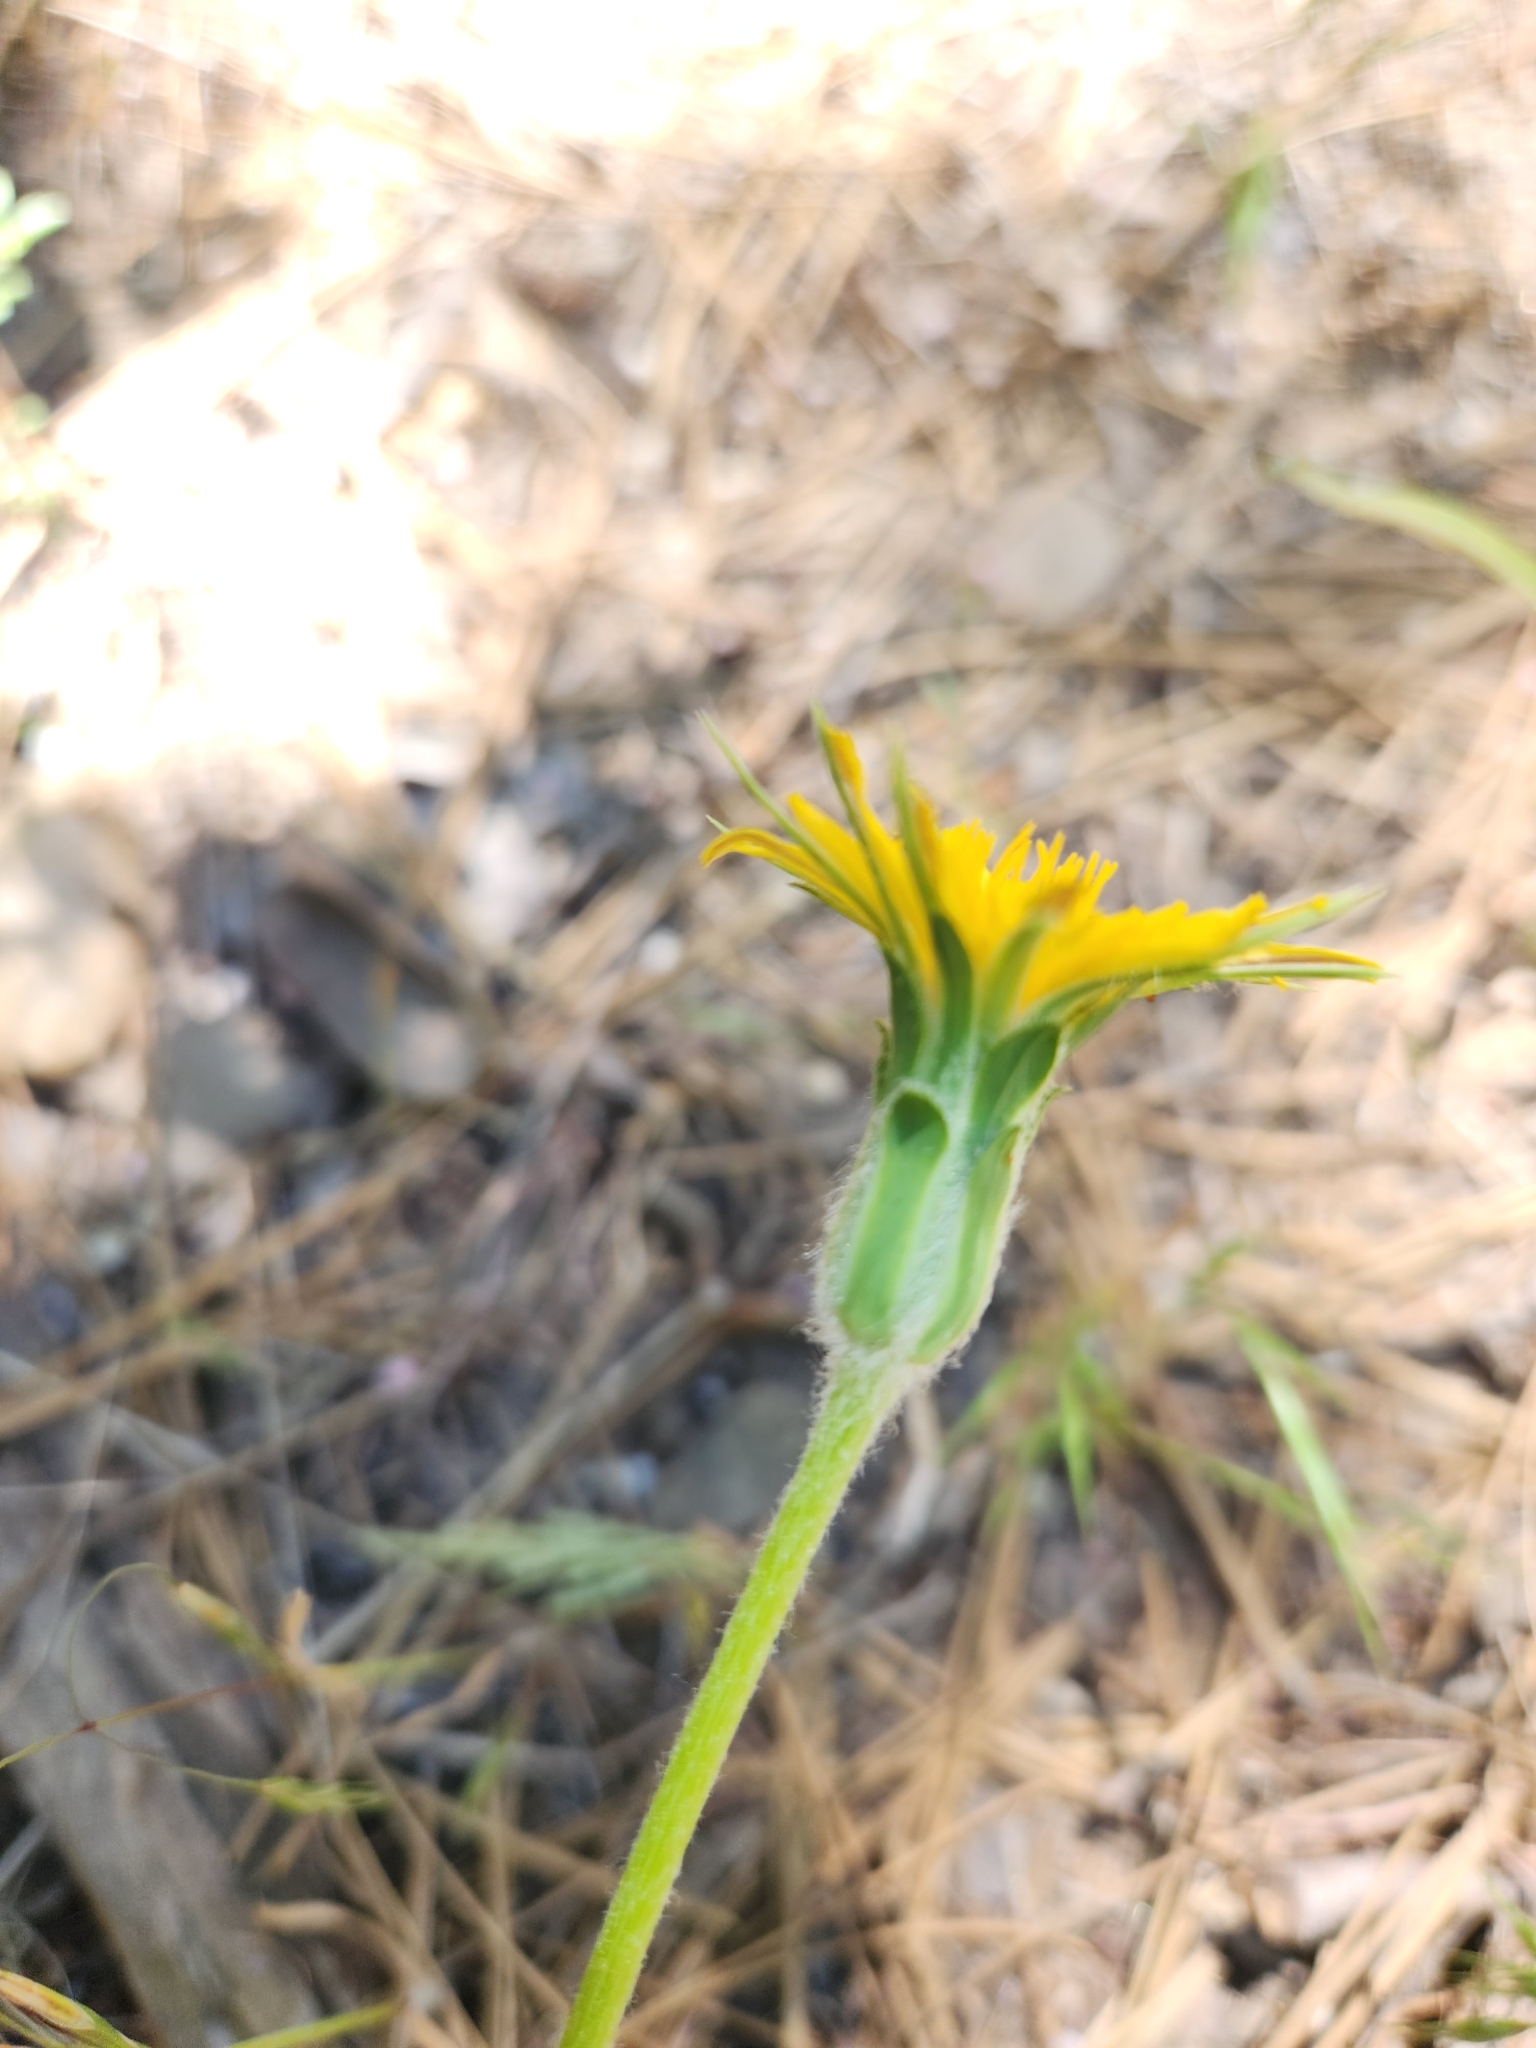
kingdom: Plantae
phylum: Tracheophyta
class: Magnoliopsida
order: Asterales
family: Asteraceae
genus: Agoseris
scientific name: Agoseris retrorsa
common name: Spearleaf agoseris
